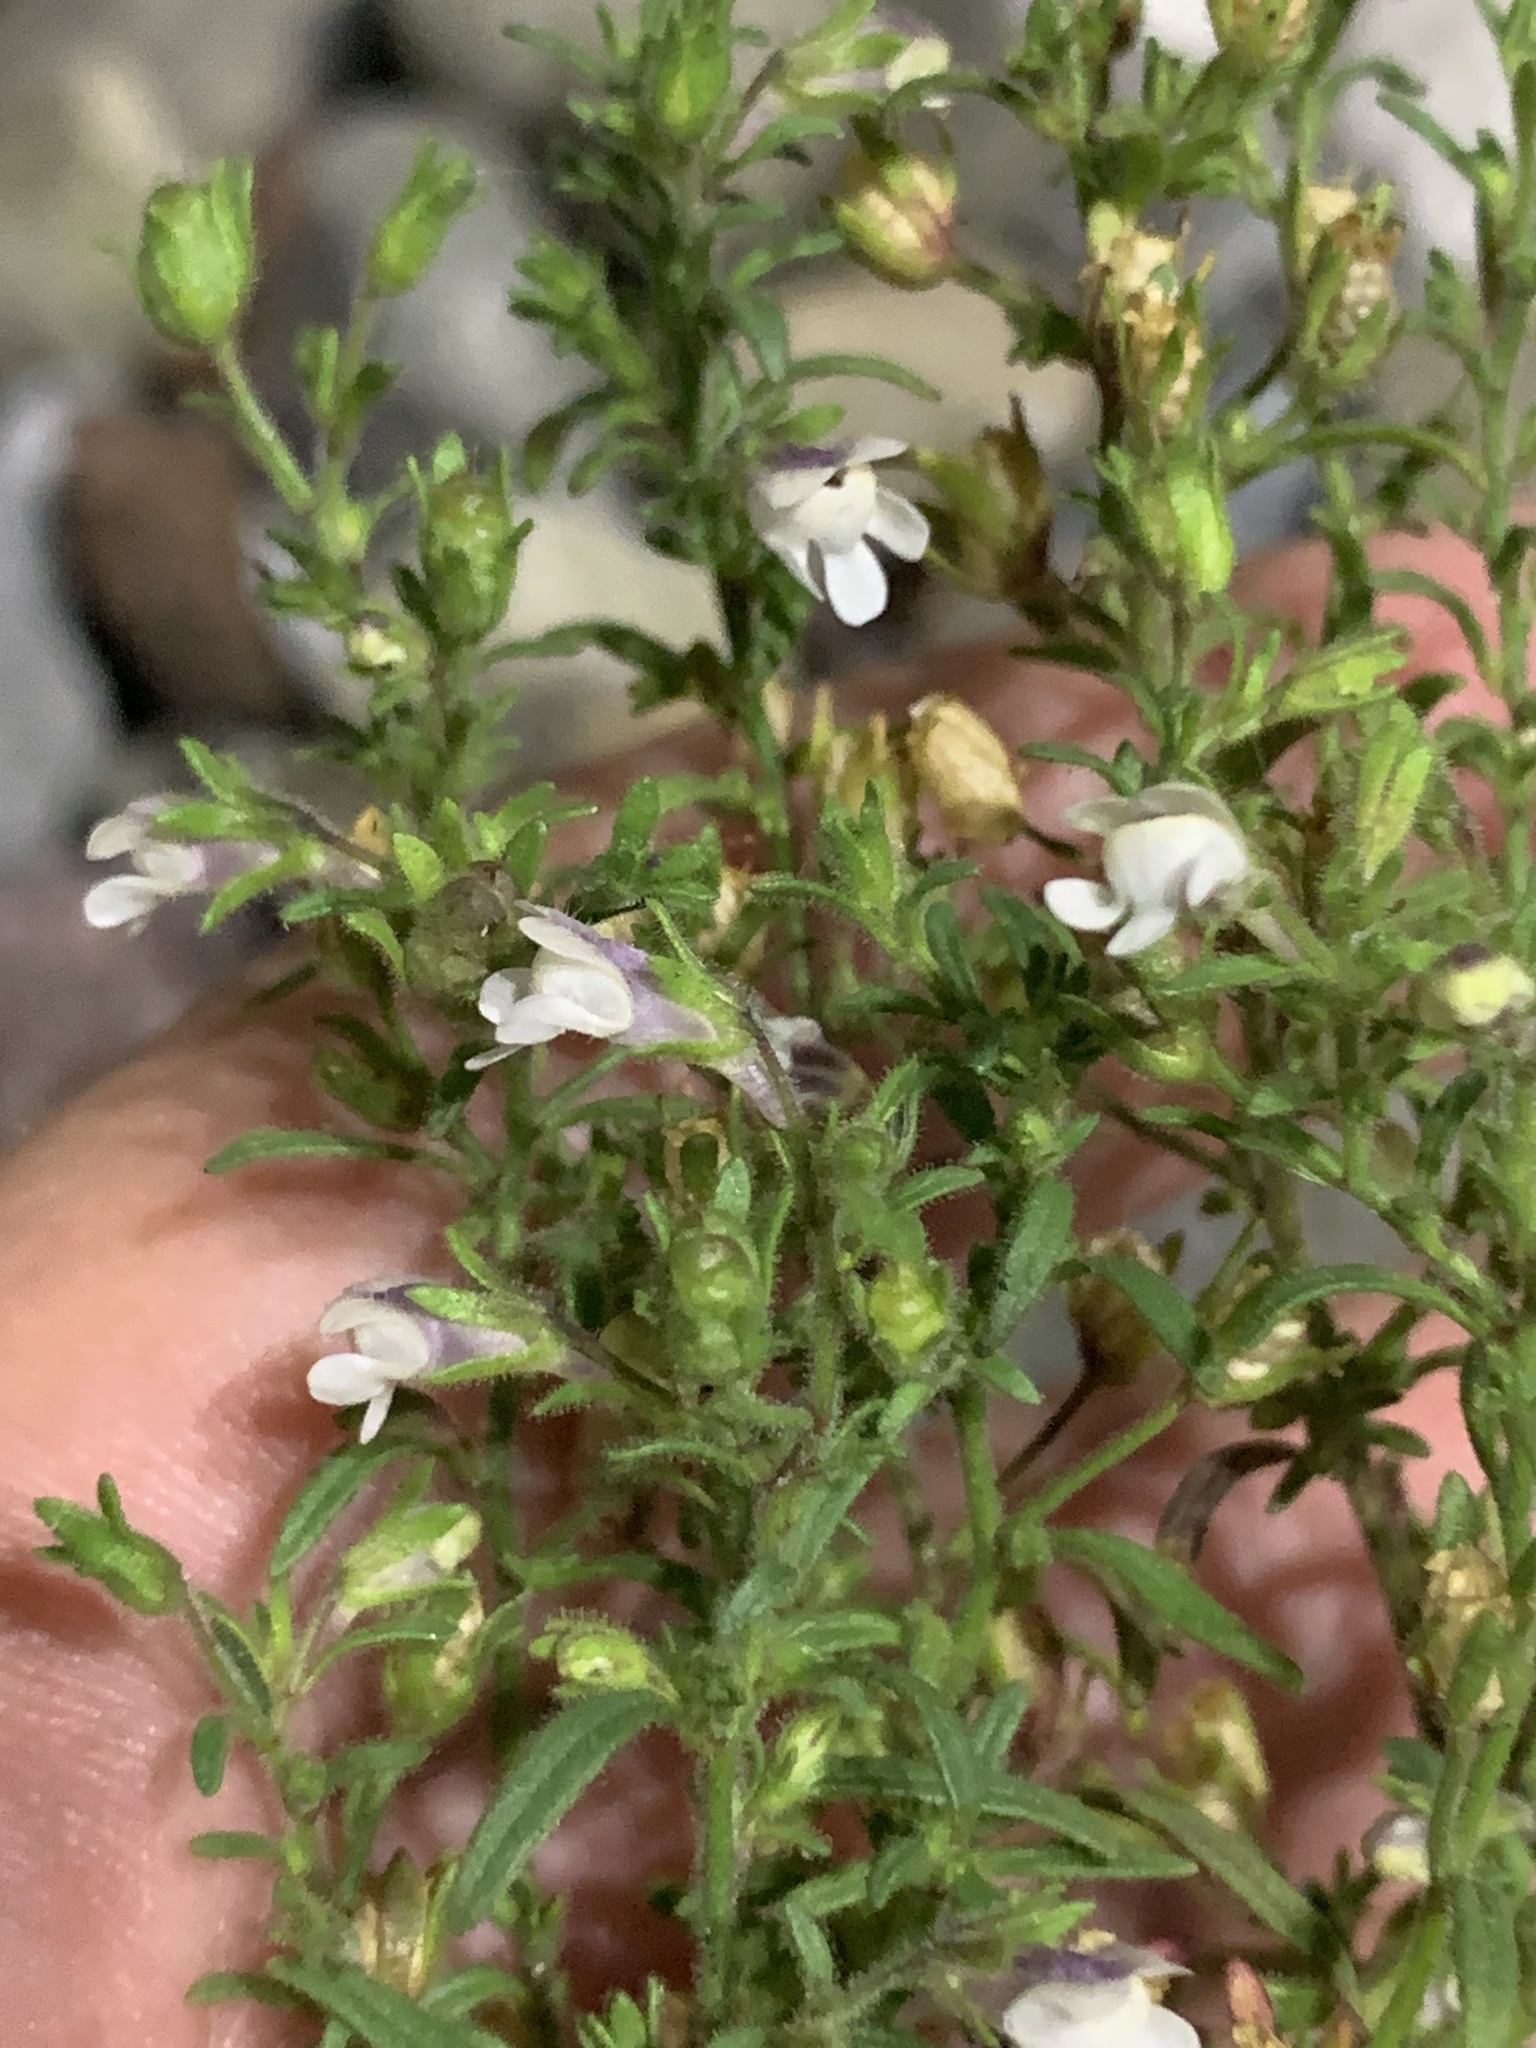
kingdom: Plantae
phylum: Tracheophyta
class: Magnoliopsida
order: Lamiales
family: Plantaginaceae
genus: Chaenorhinum
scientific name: Chaenorhinum minus
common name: Dwarf snapdragon
